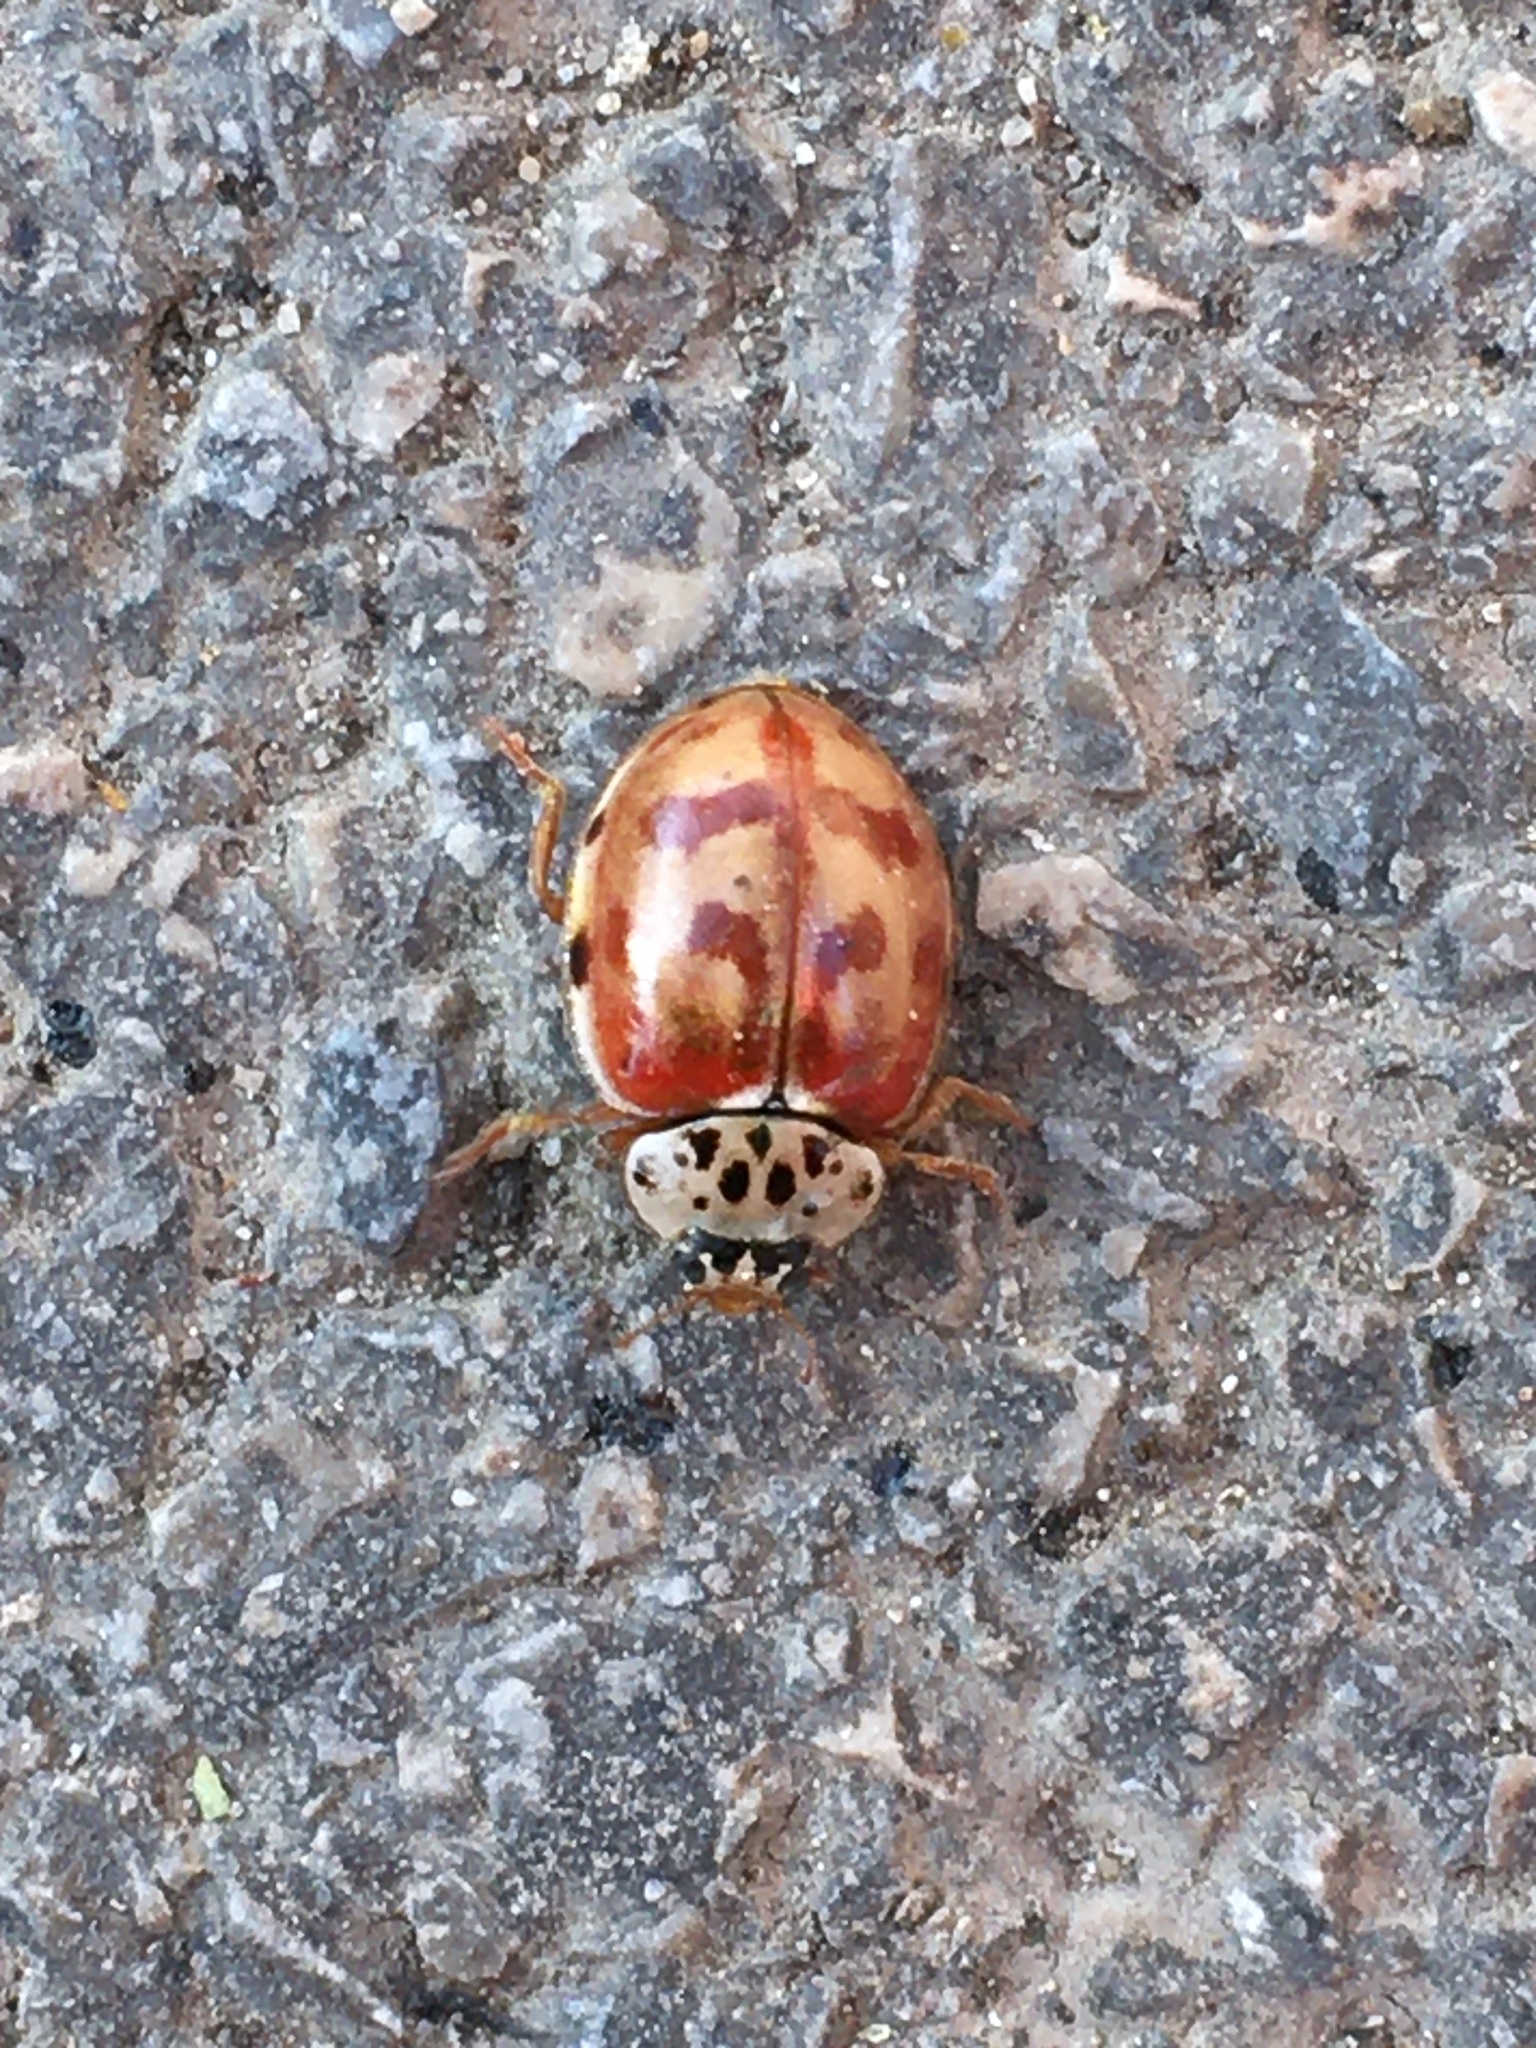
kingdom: Animalia
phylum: Arthropoda
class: Insecta
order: Coleoptera
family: Coccinellidae
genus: Harmonia
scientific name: Harmonia quadripunctata
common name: Cream-streaked ladybird
